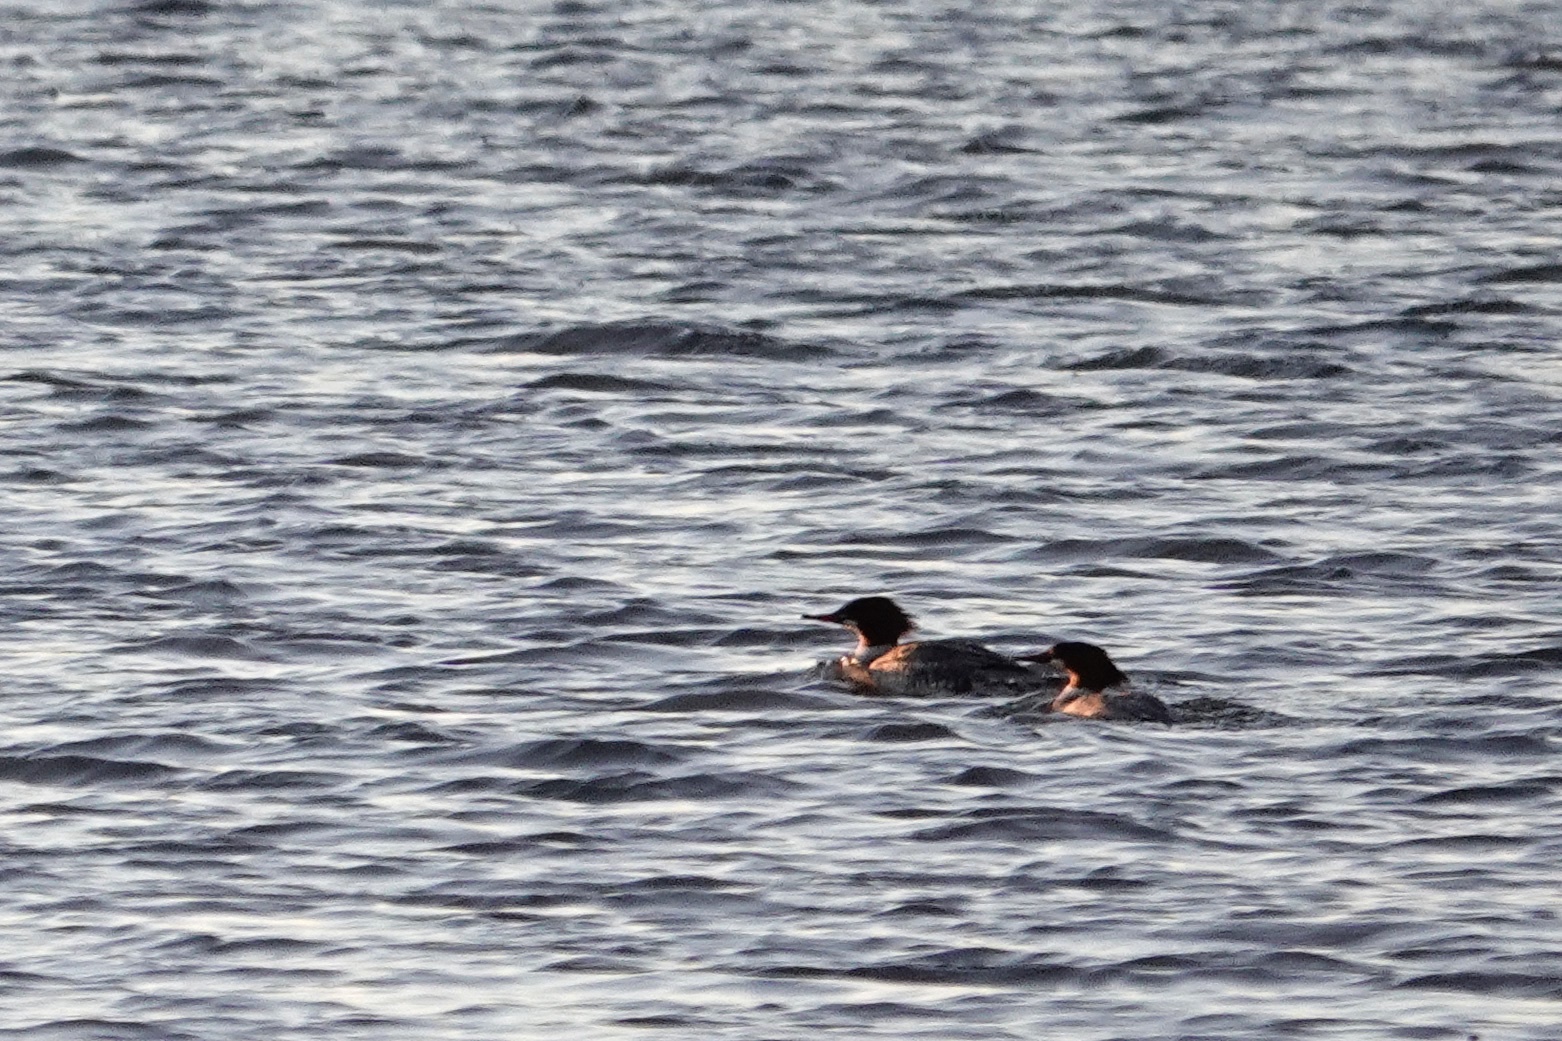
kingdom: Animalia
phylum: Chordata
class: Aves
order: Anseriformes
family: Anatidae
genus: Mergus
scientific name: Mergus merganser
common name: Common merganser
